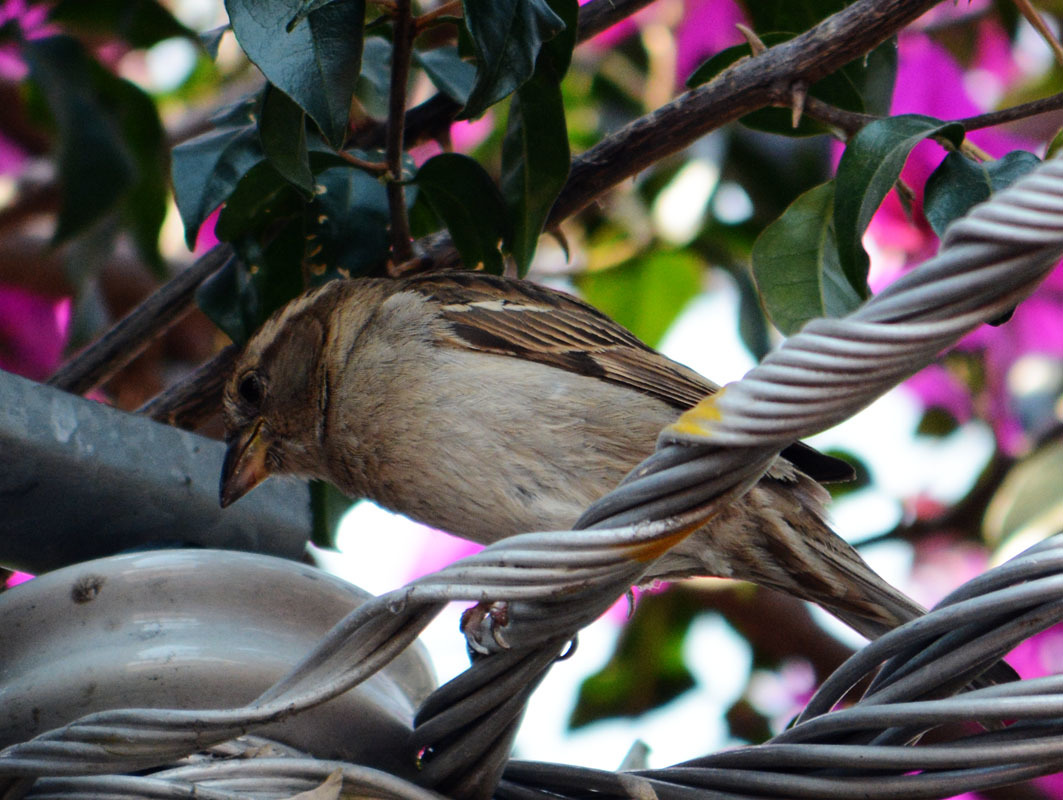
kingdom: Animalia
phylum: Chordata
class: Aves
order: Passeriformes
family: Passeridae
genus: Passer
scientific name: Passer domesticus
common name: House sparrow
